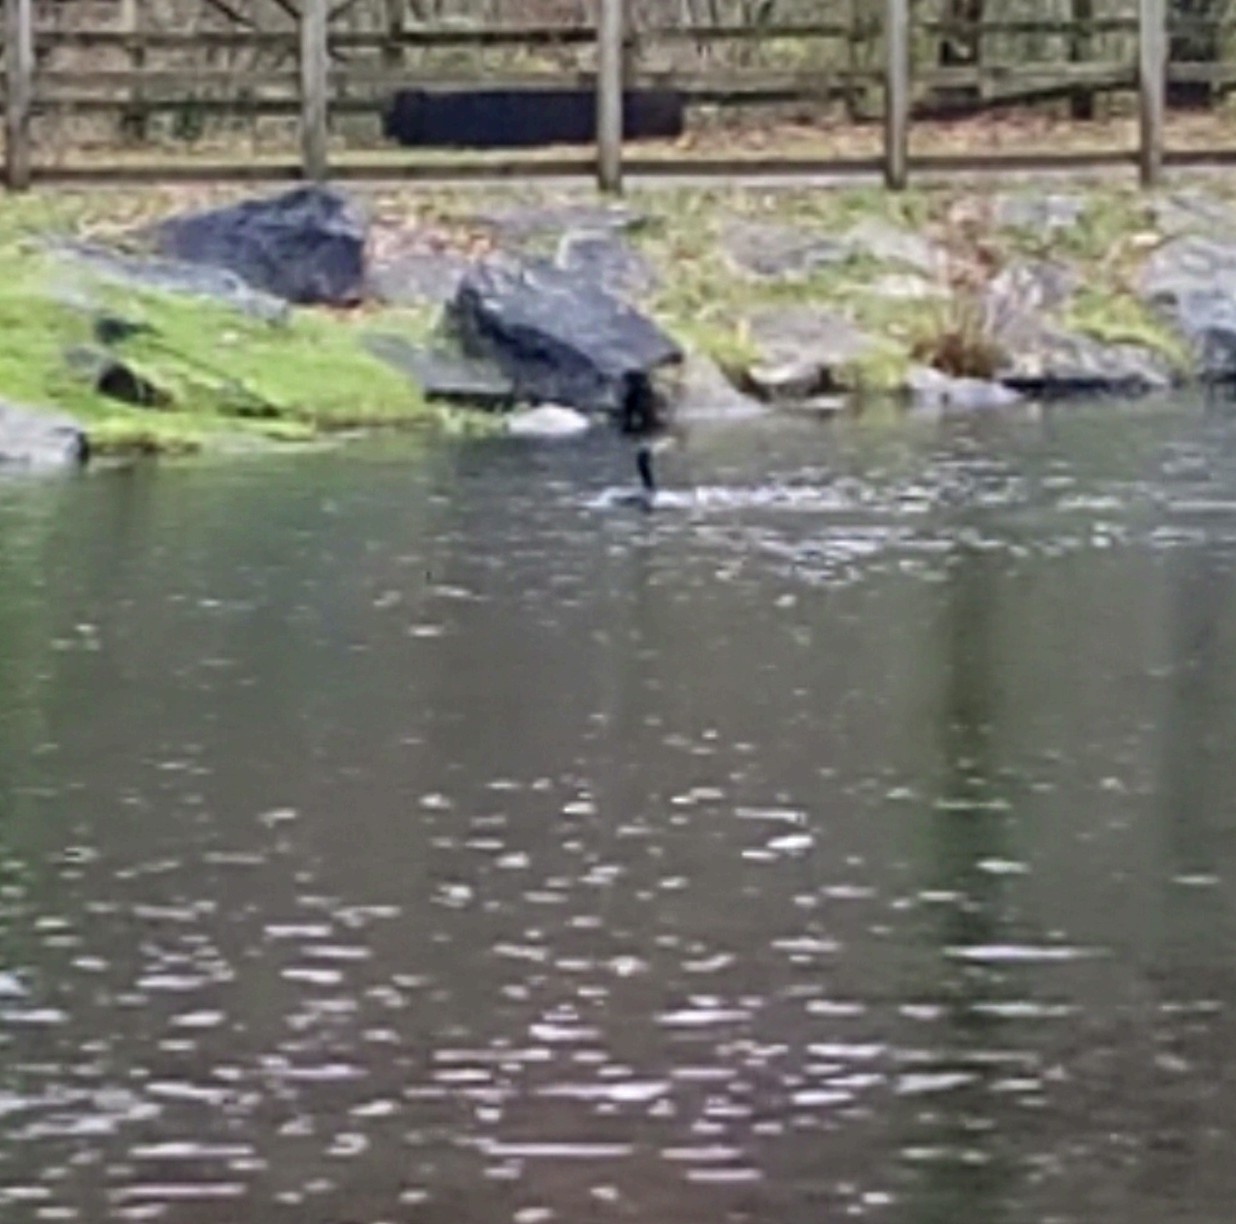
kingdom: Animalia
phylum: Chordata
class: Aves
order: Suliformes
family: Phalacrocoracidae
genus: Phalacrocorax
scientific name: Phalacrocorax carbo
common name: Great cormorant
